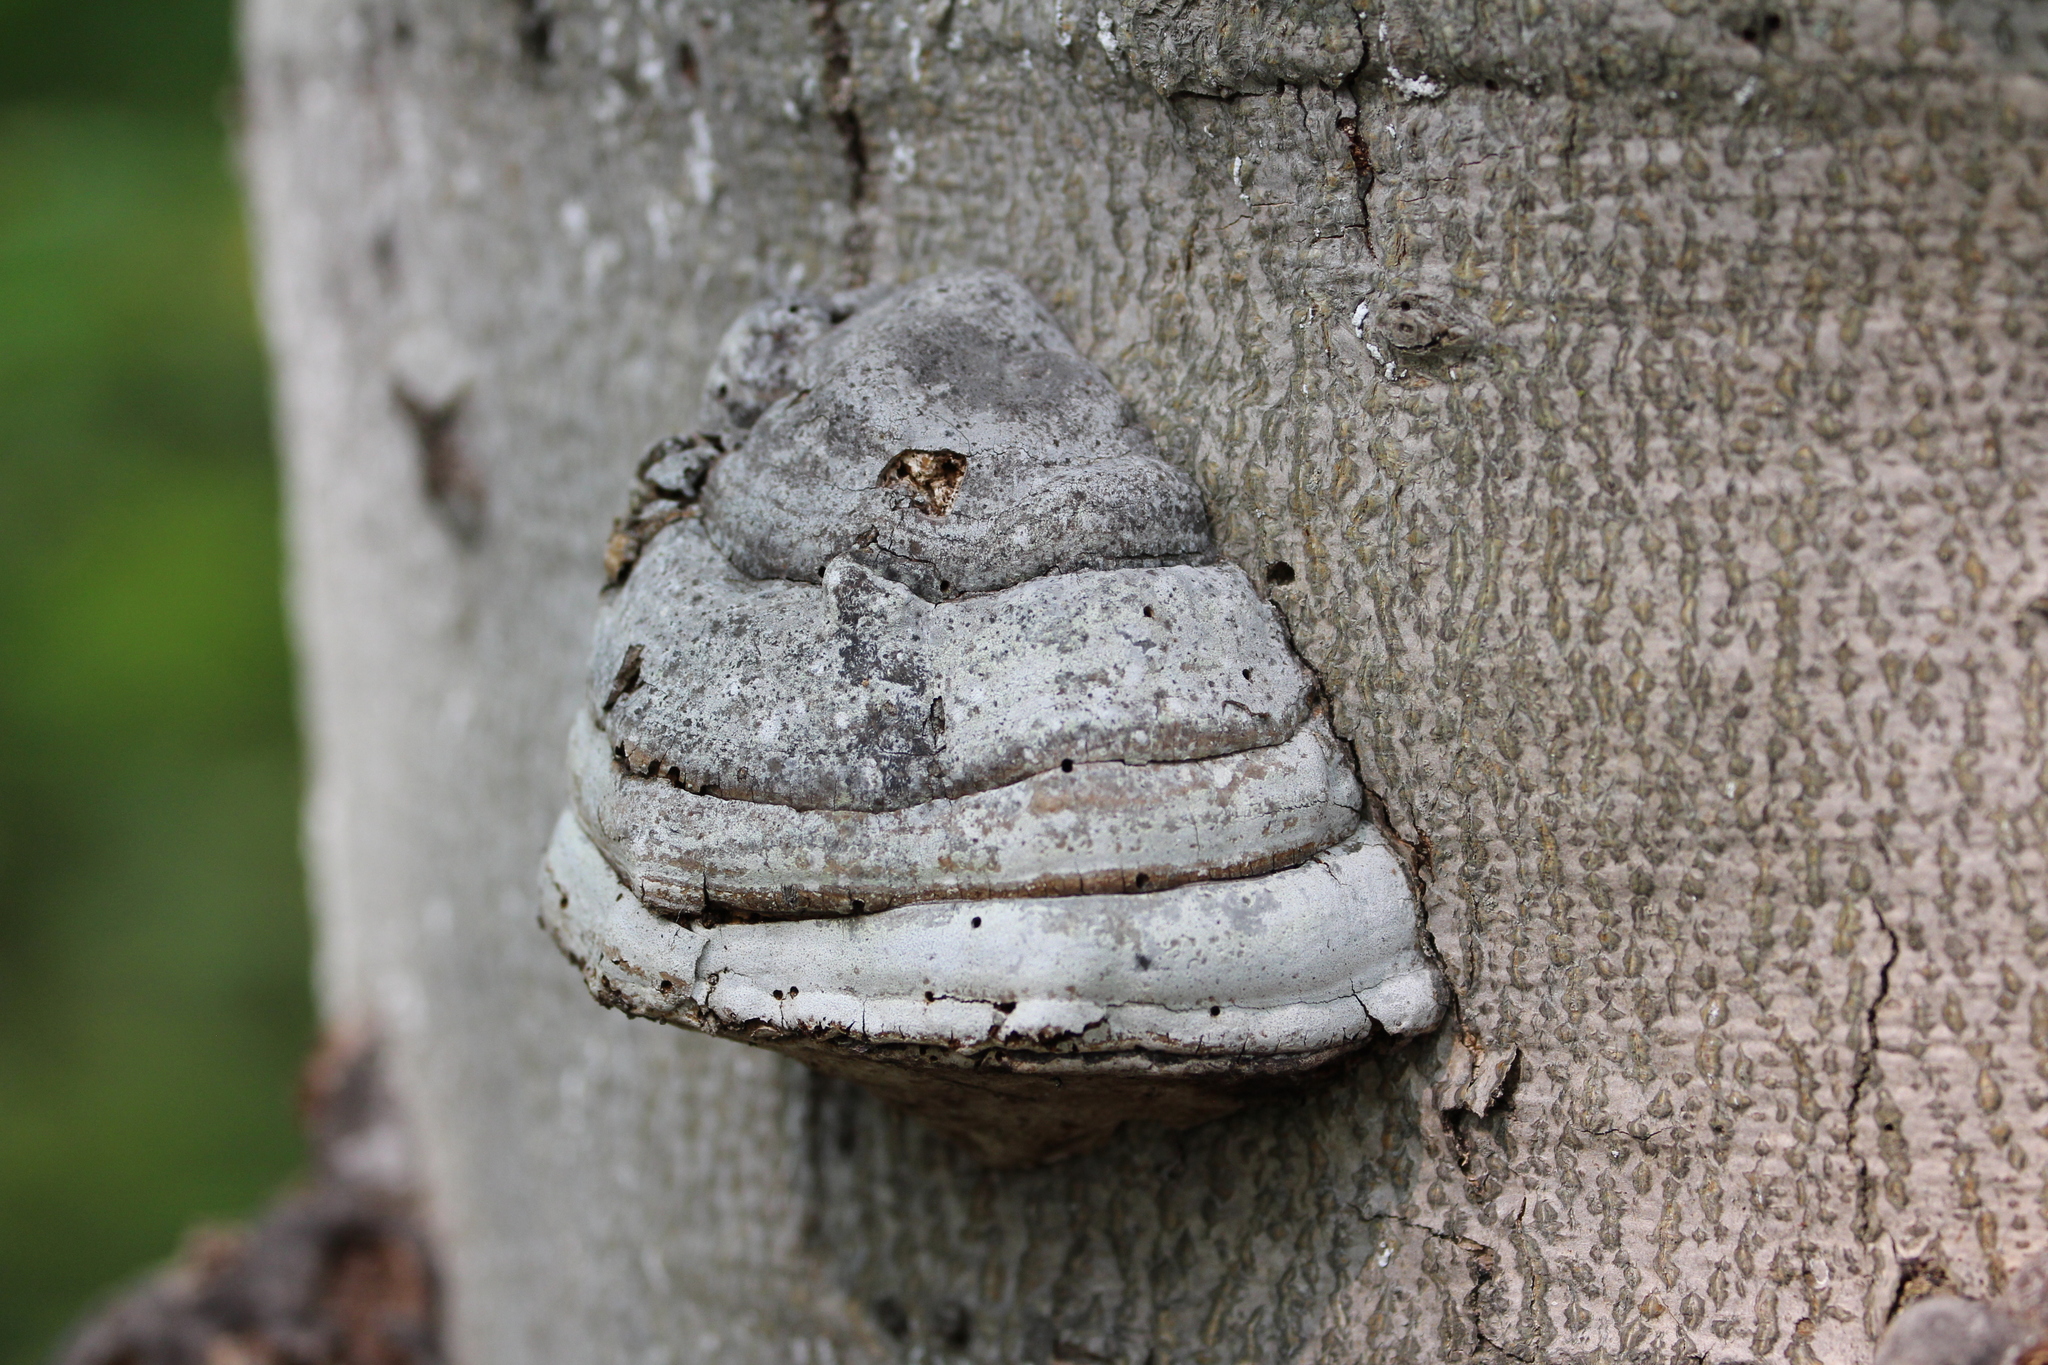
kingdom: Fungi
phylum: Basidiomycota
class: Agaricomycetes
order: Polyporales
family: Polyporaceae
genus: Fomes
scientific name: Fomes fomentarius
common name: Hoof fungus
